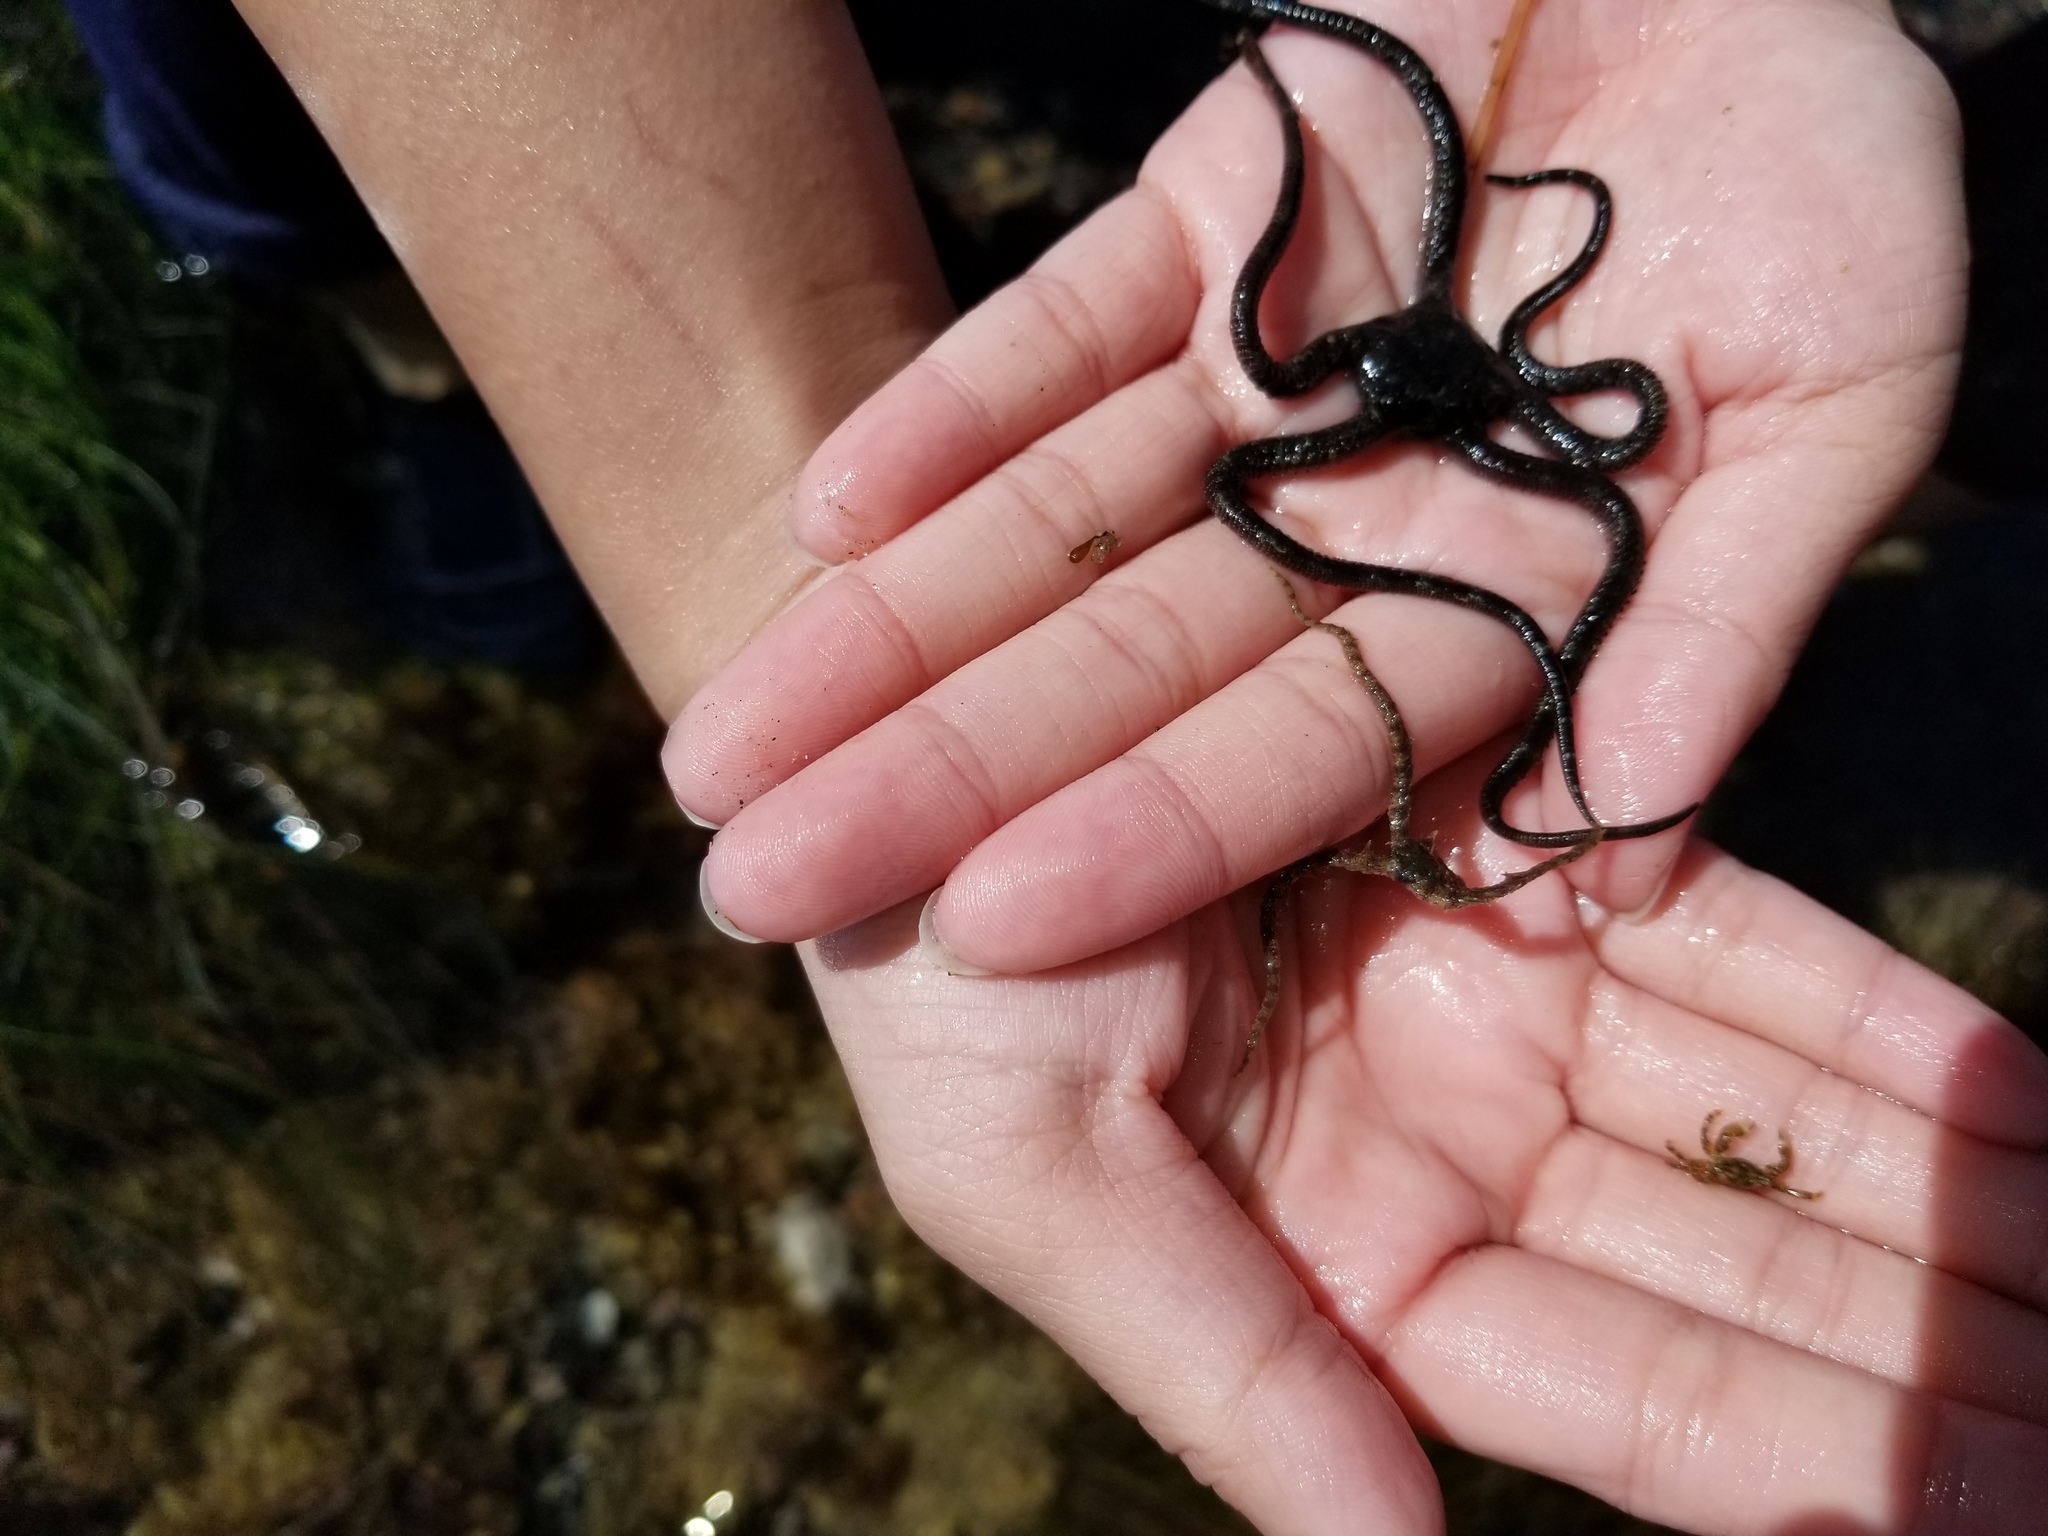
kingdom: Animalia
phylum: Echinodermata
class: Ophiuroidea
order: Ophiacanthida
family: Ophiodermatidae
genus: Ophioderma
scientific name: Ophioderma panamense
